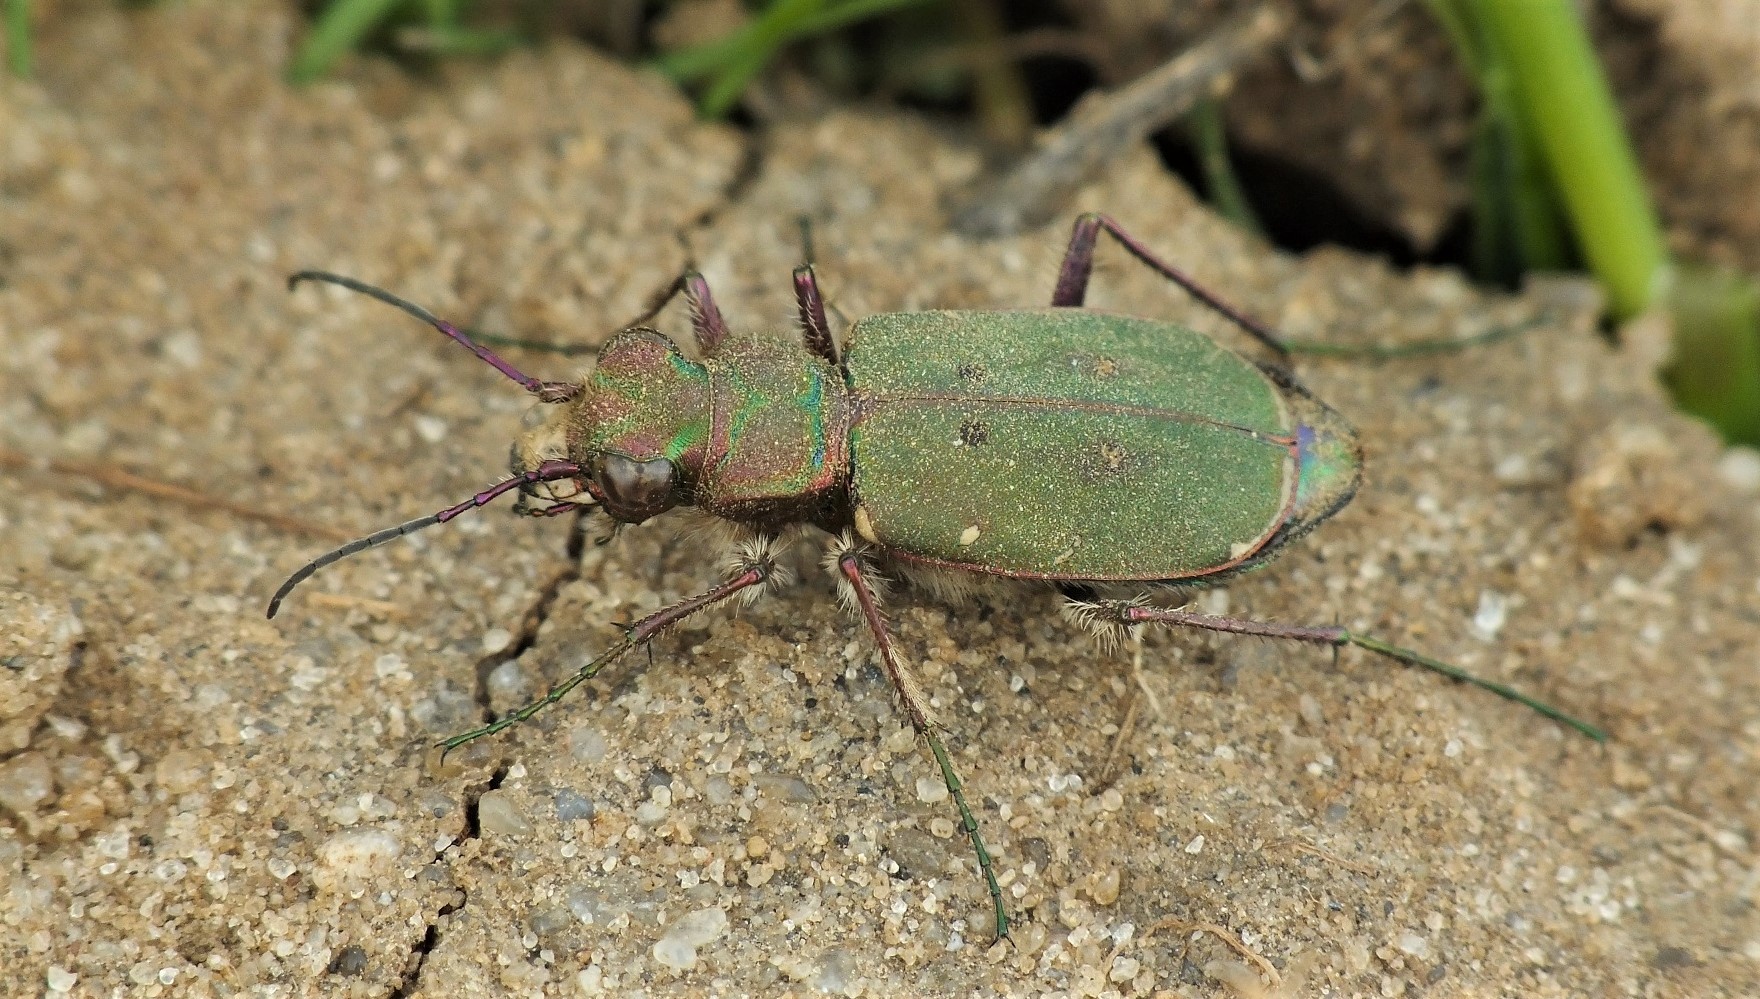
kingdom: Animalia
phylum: Arthropoda
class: Insecta
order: Coleoptera
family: Carabidae
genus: Cicindela
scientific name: Cicindela campestris
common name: Common tiger beetle
